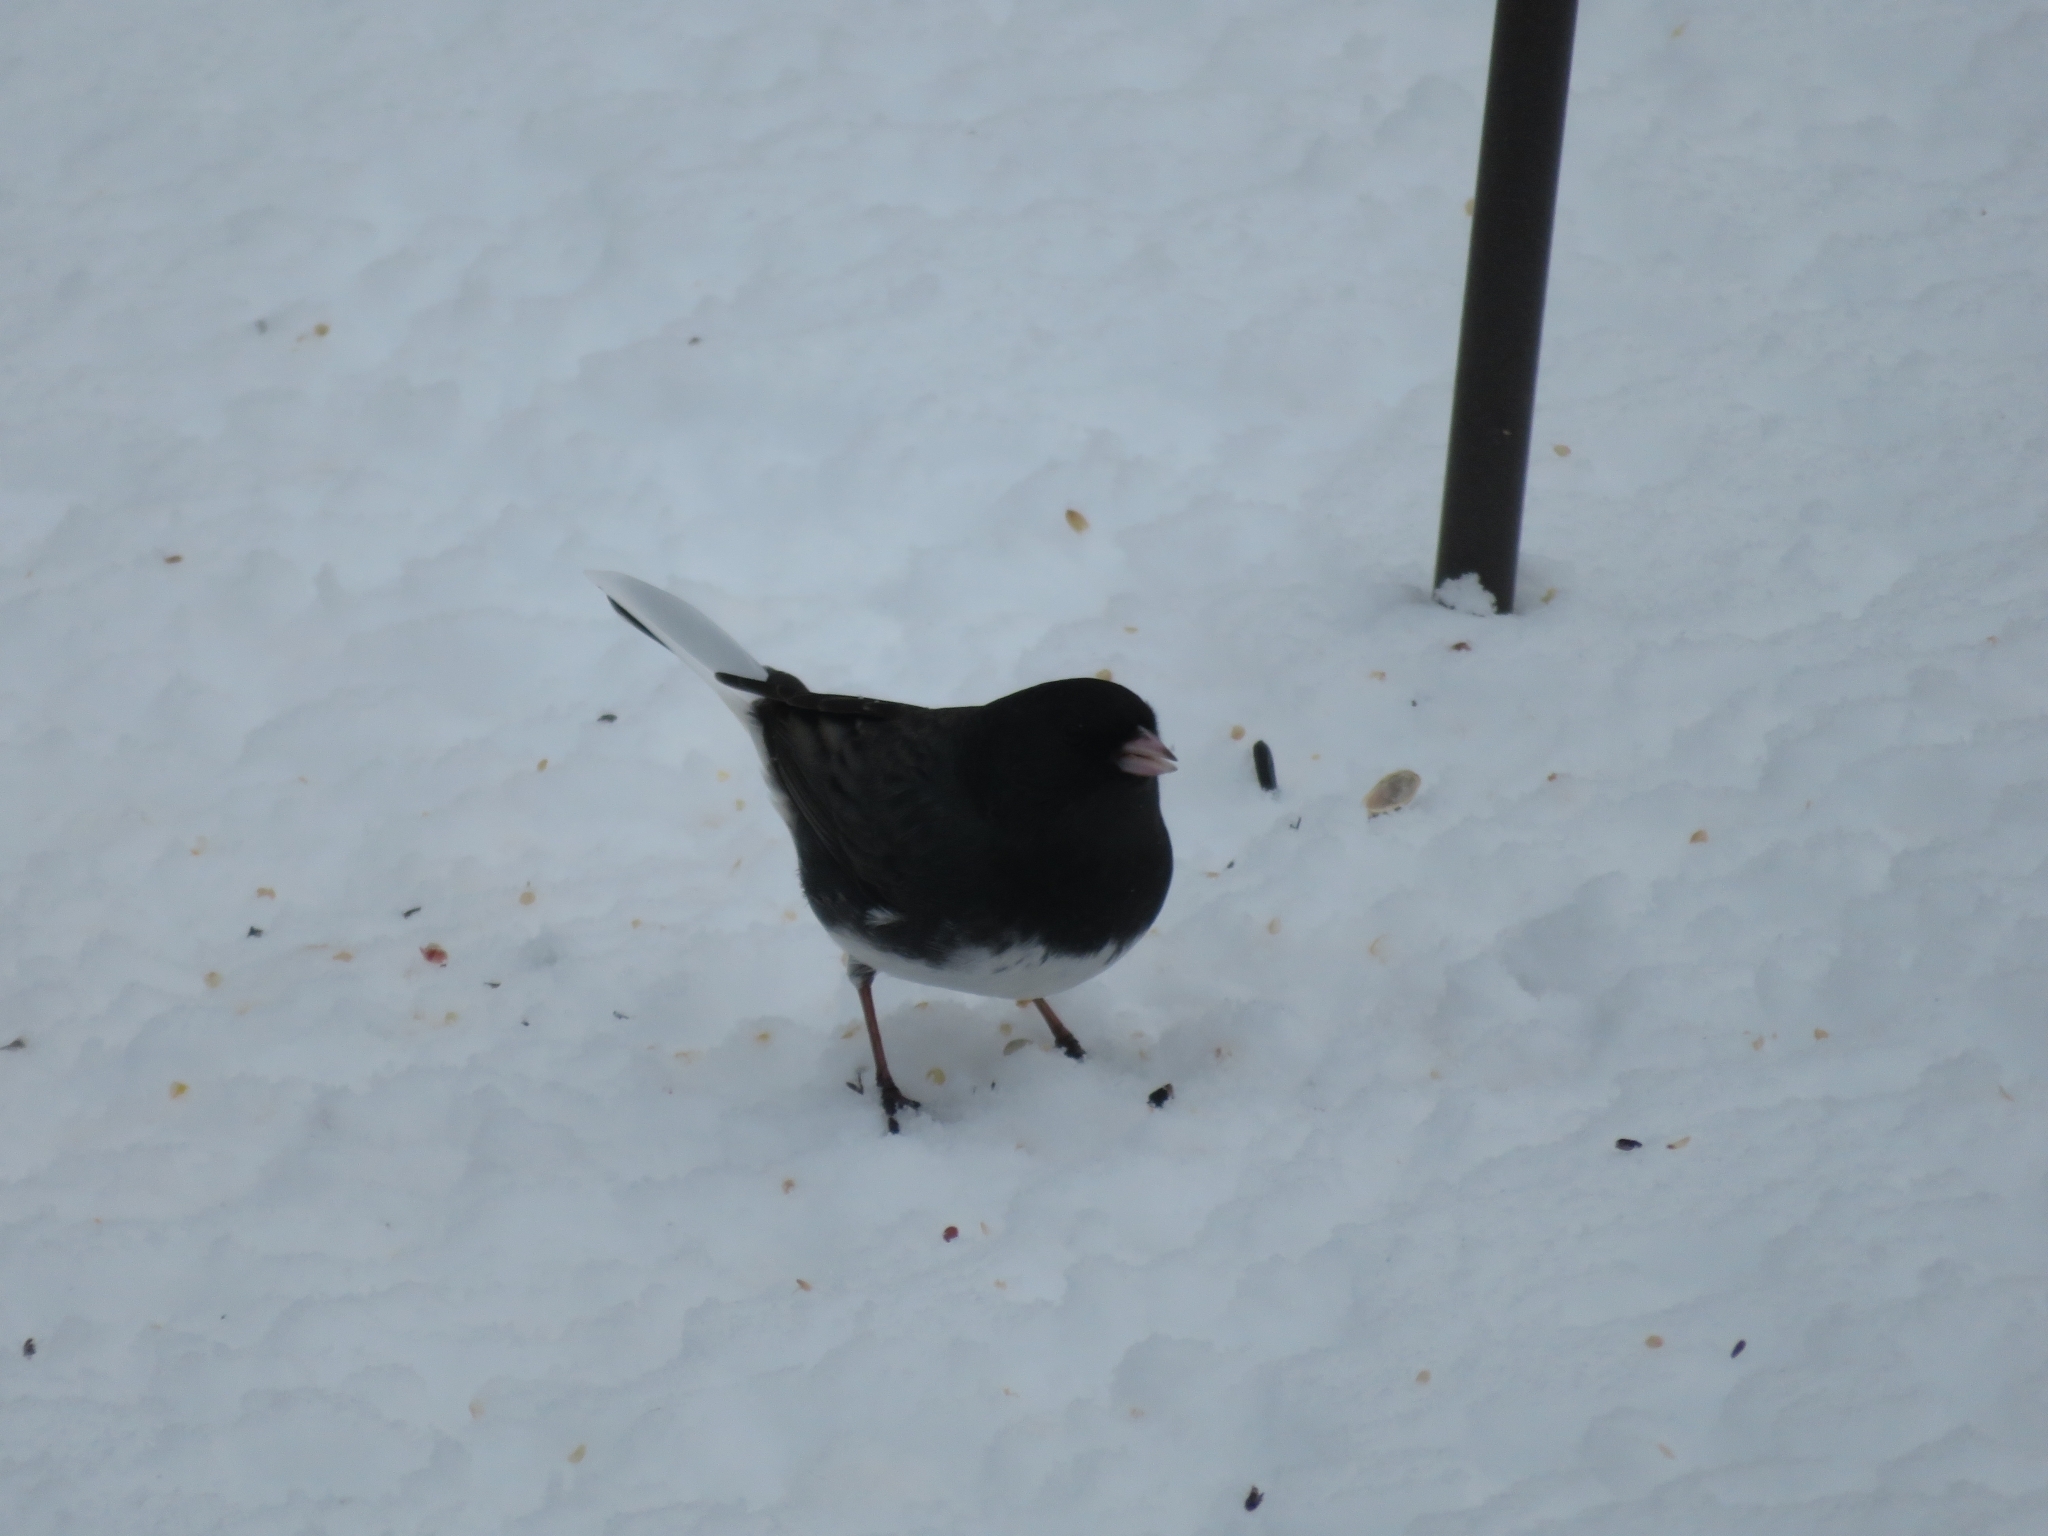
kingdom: Animalia
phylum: Chordata
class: Aves
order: Passeriformes
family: Passerellidae
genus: Junco
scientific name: Junco hyemalis
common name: Dark-eyed junco
